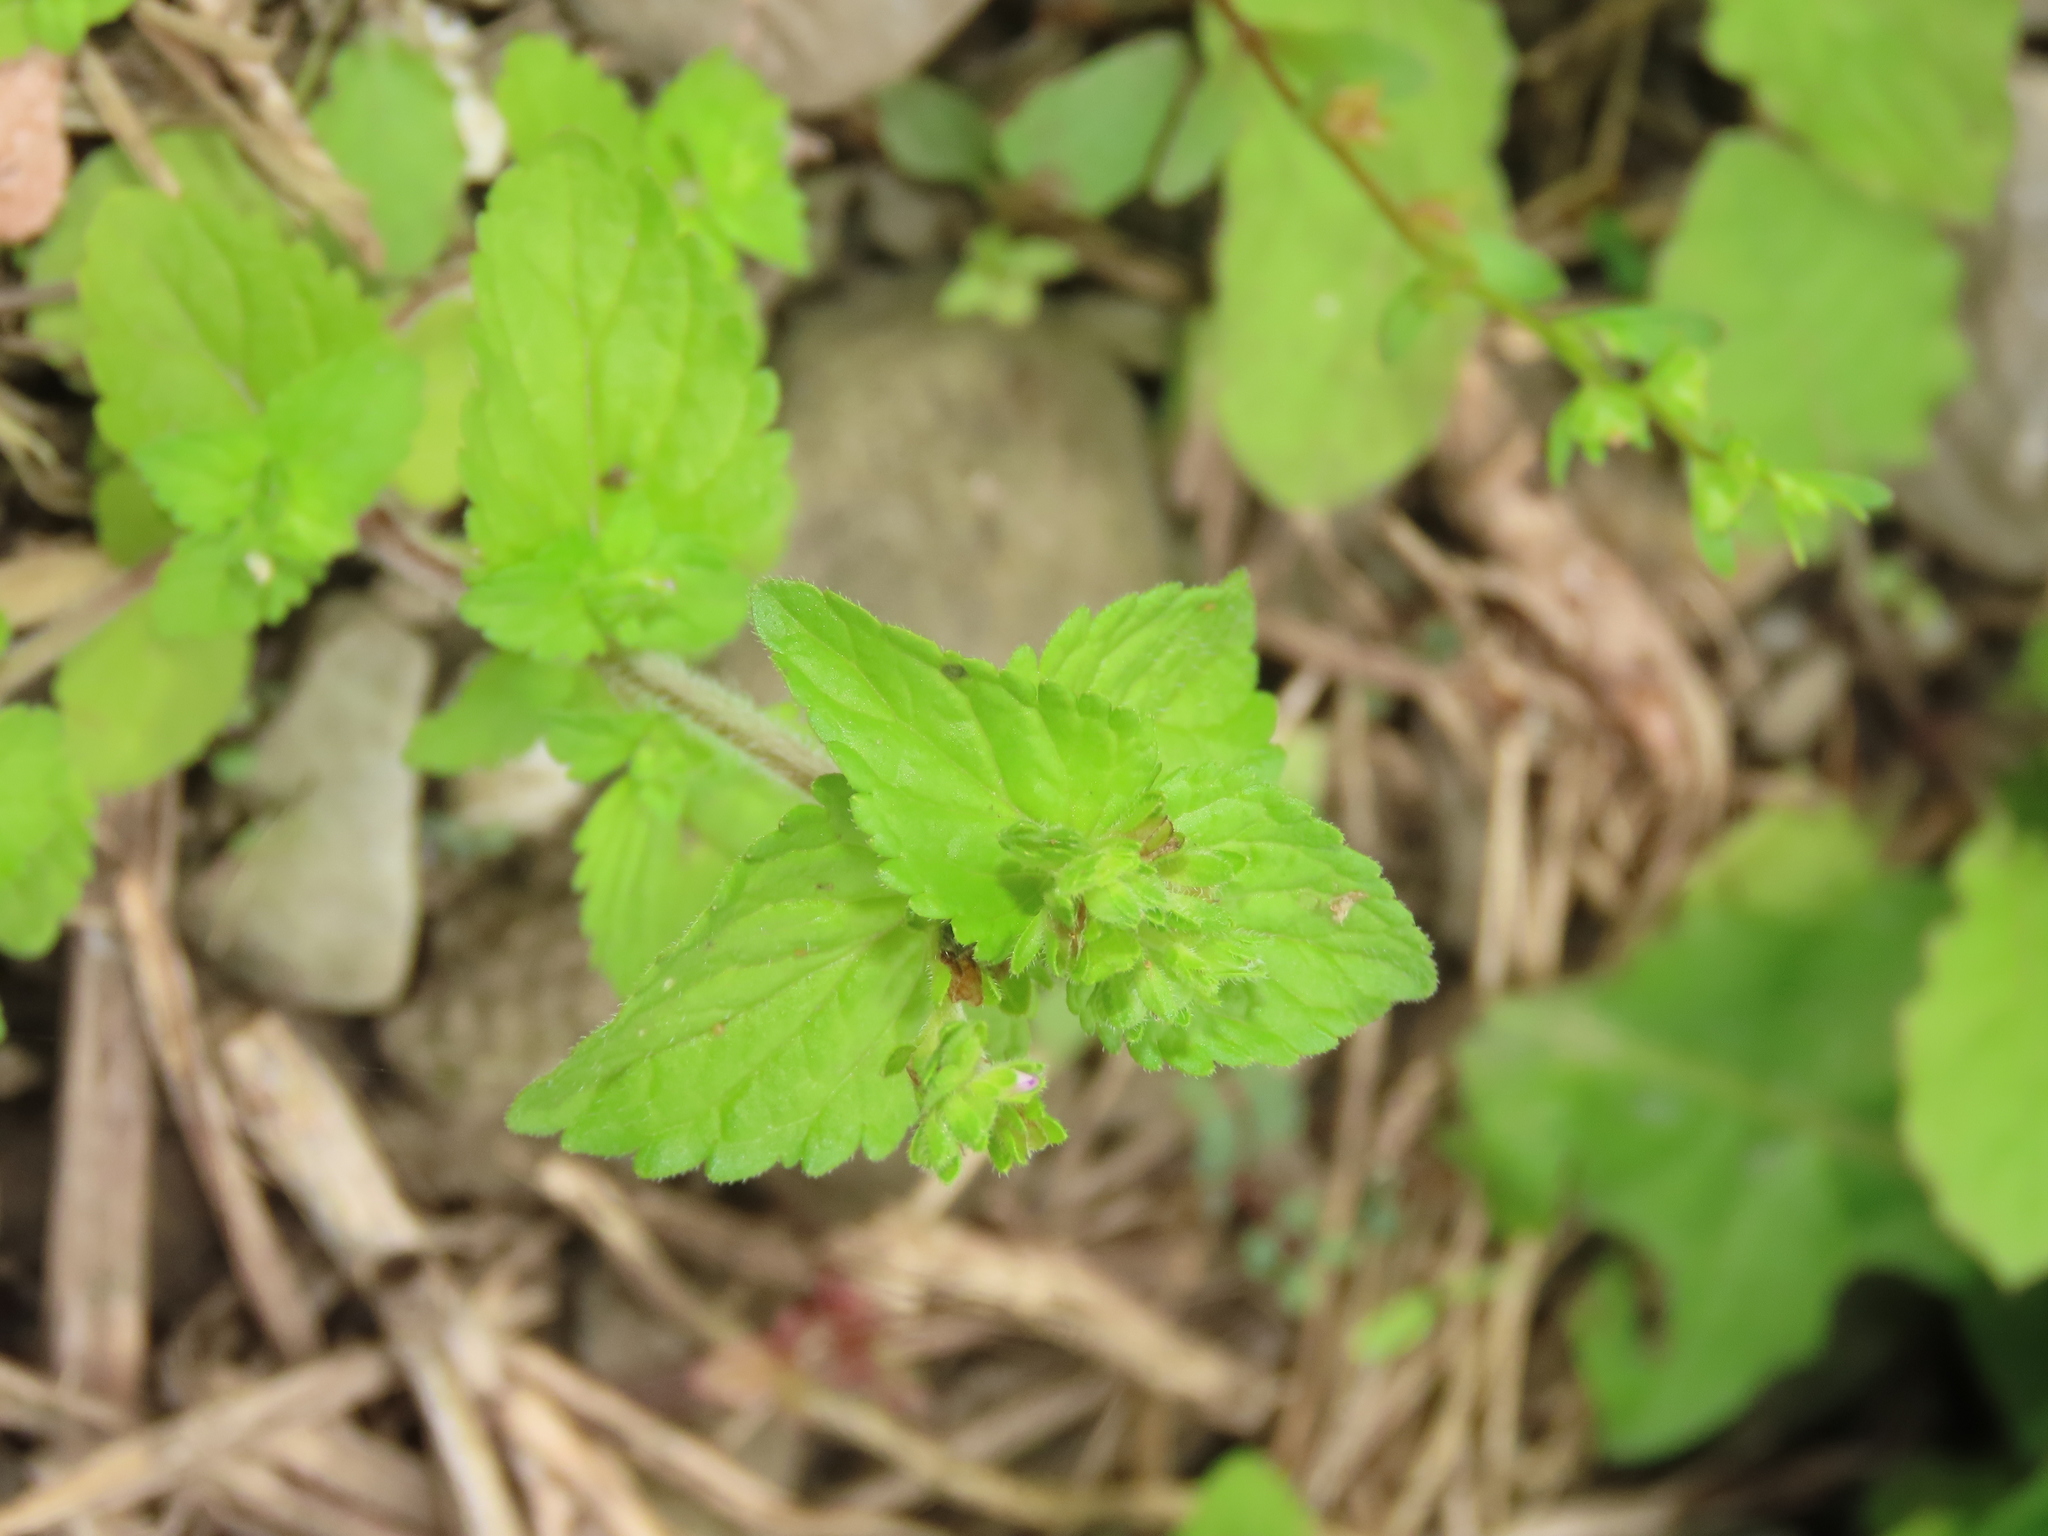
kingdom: Plantae
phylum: Tracheophyta
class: Magnoliopsida
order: Boraginales
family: Boraginaceae
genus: Bothriospermum
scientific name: Bothriospermum zeylanicum
